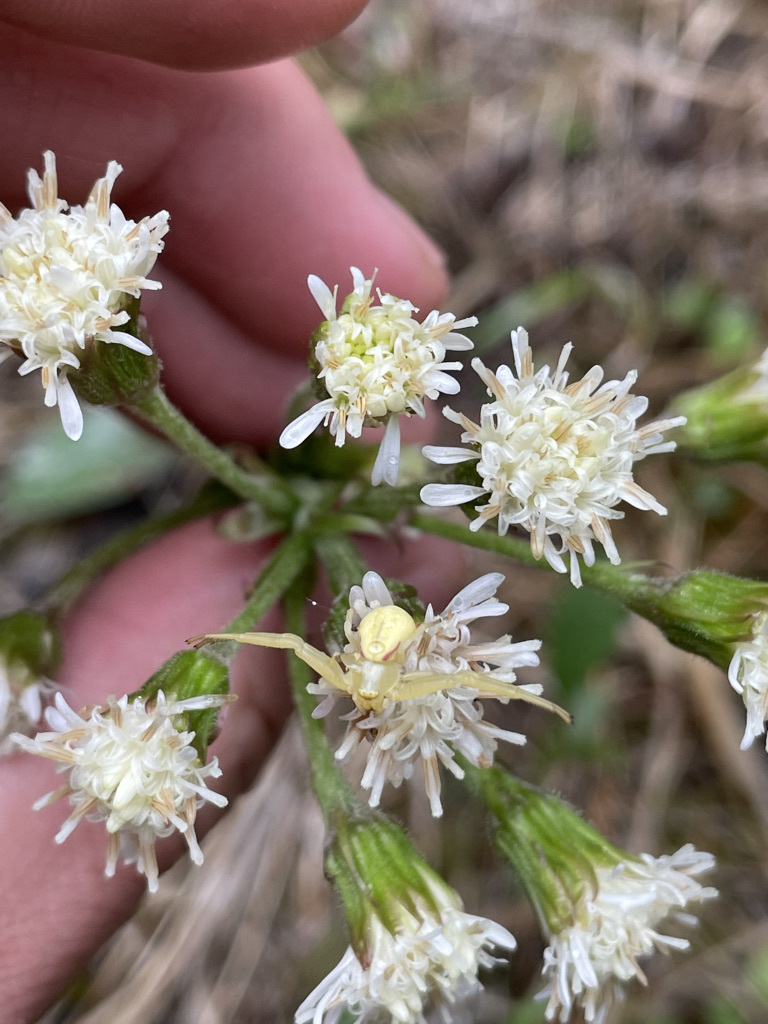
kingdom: Animalia
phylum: Arthropoda
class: Arachnida
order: Araneae
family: Thomisidae
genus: Misumena
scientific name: Misumena vatia
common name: Goldenrod crab spider
